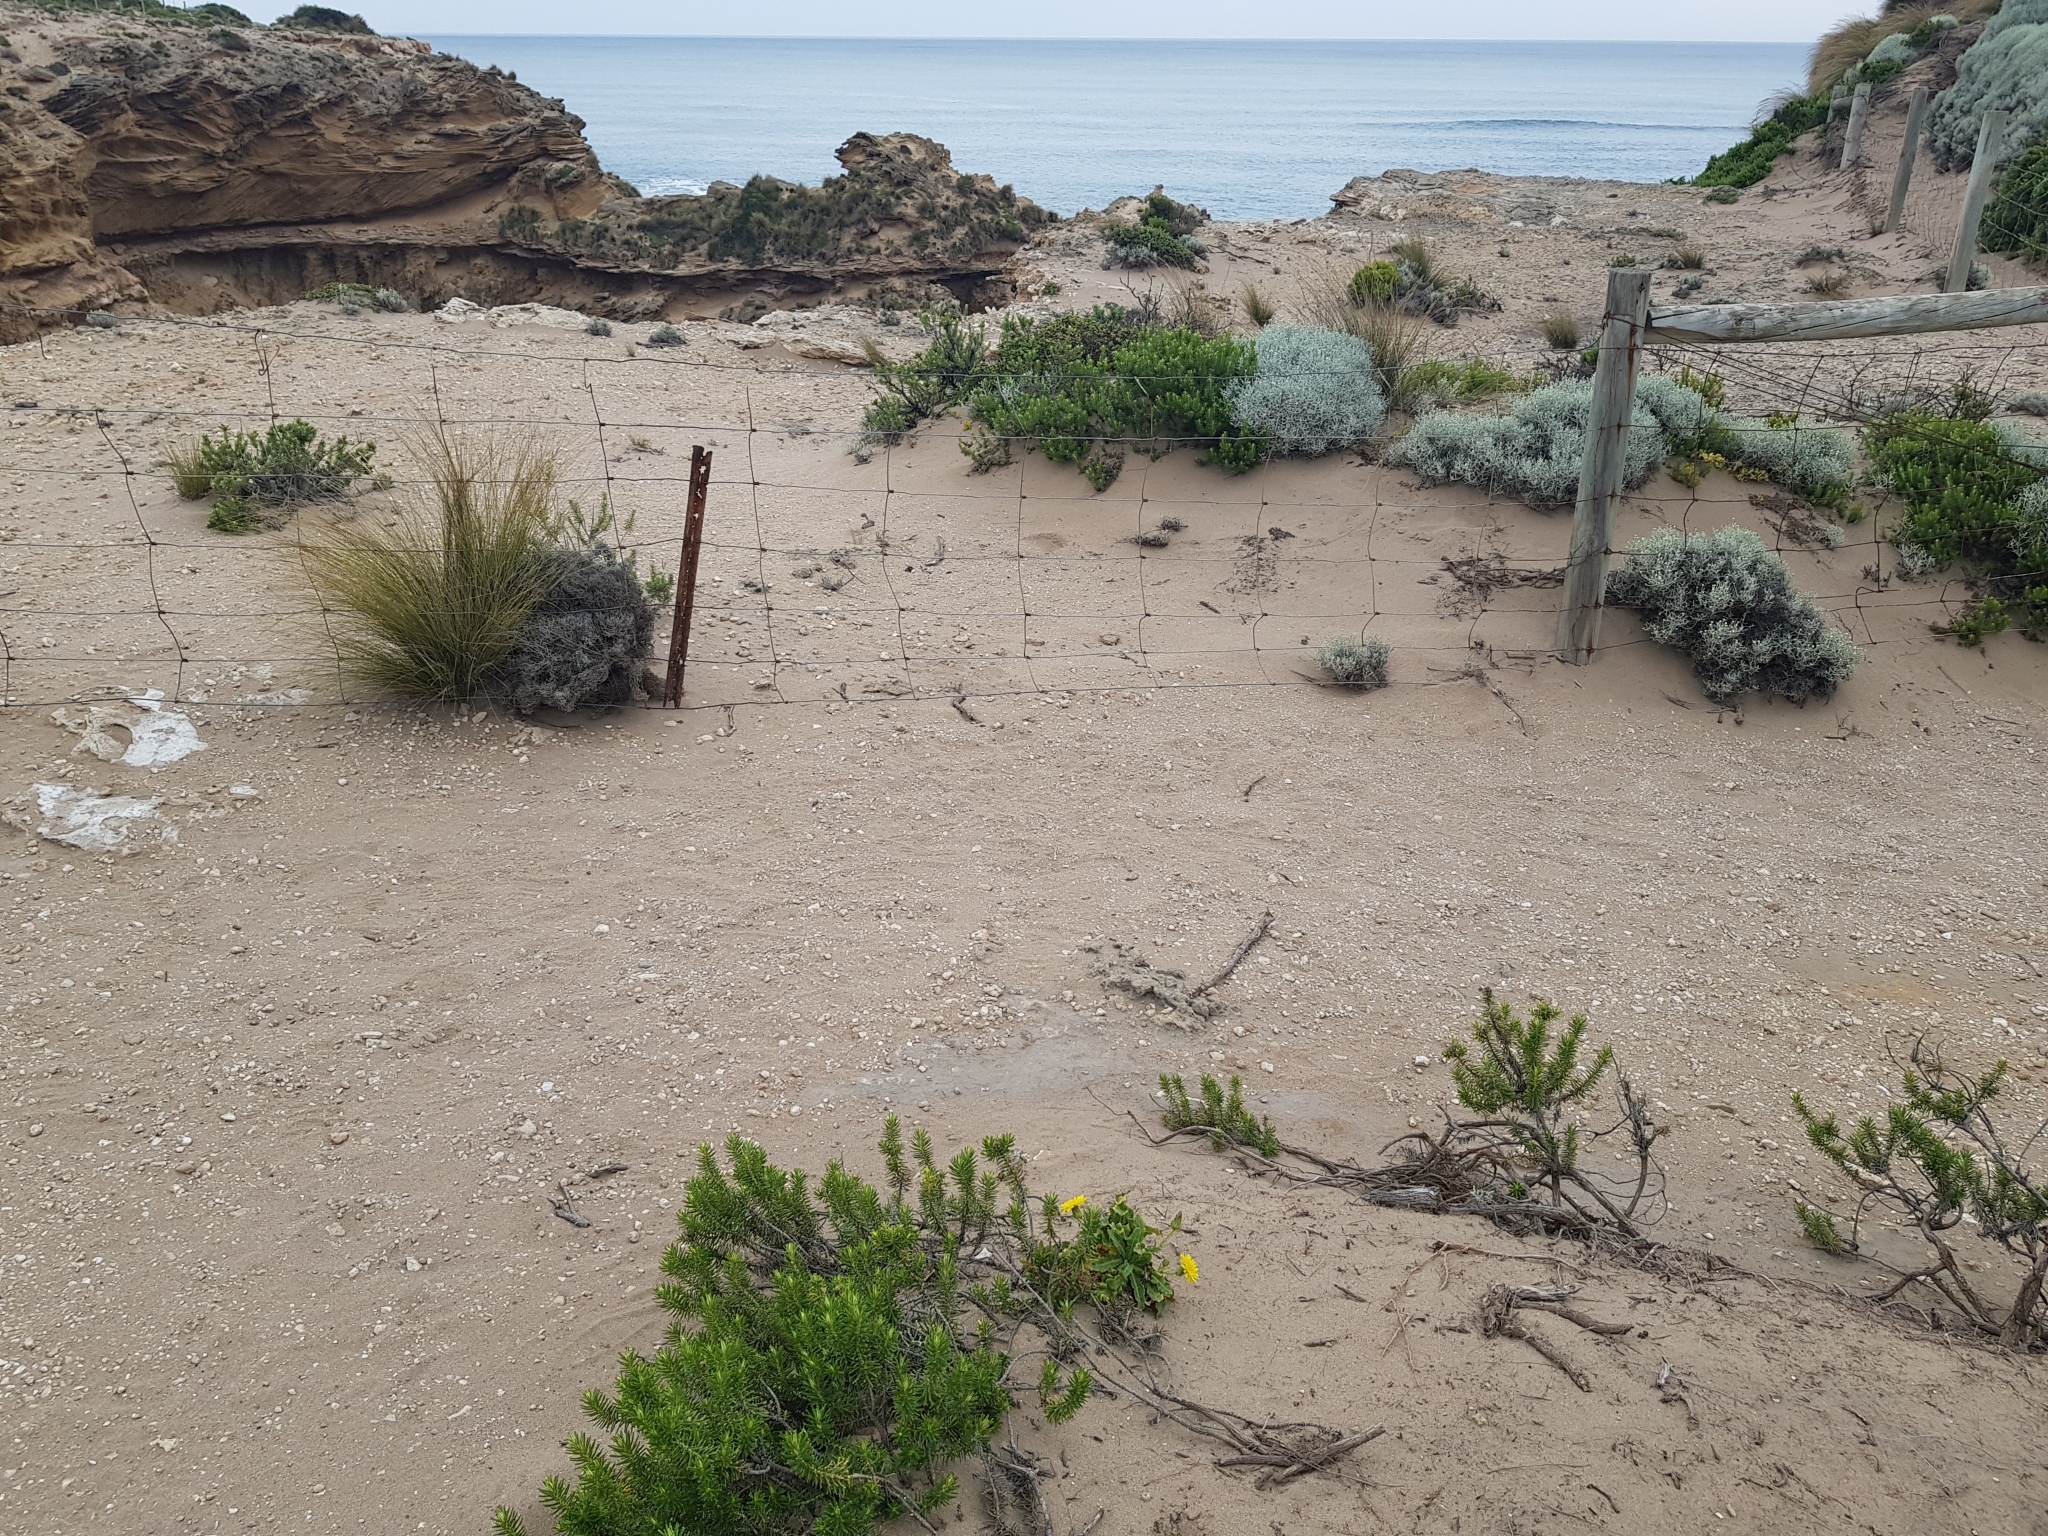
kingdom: Plantae
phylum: Tracheophyta
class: Magnoliopsida
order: Asterales
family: Asteraceae
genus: Sonchus
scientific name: Sonchus megalocarpus
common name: Dune thistle
